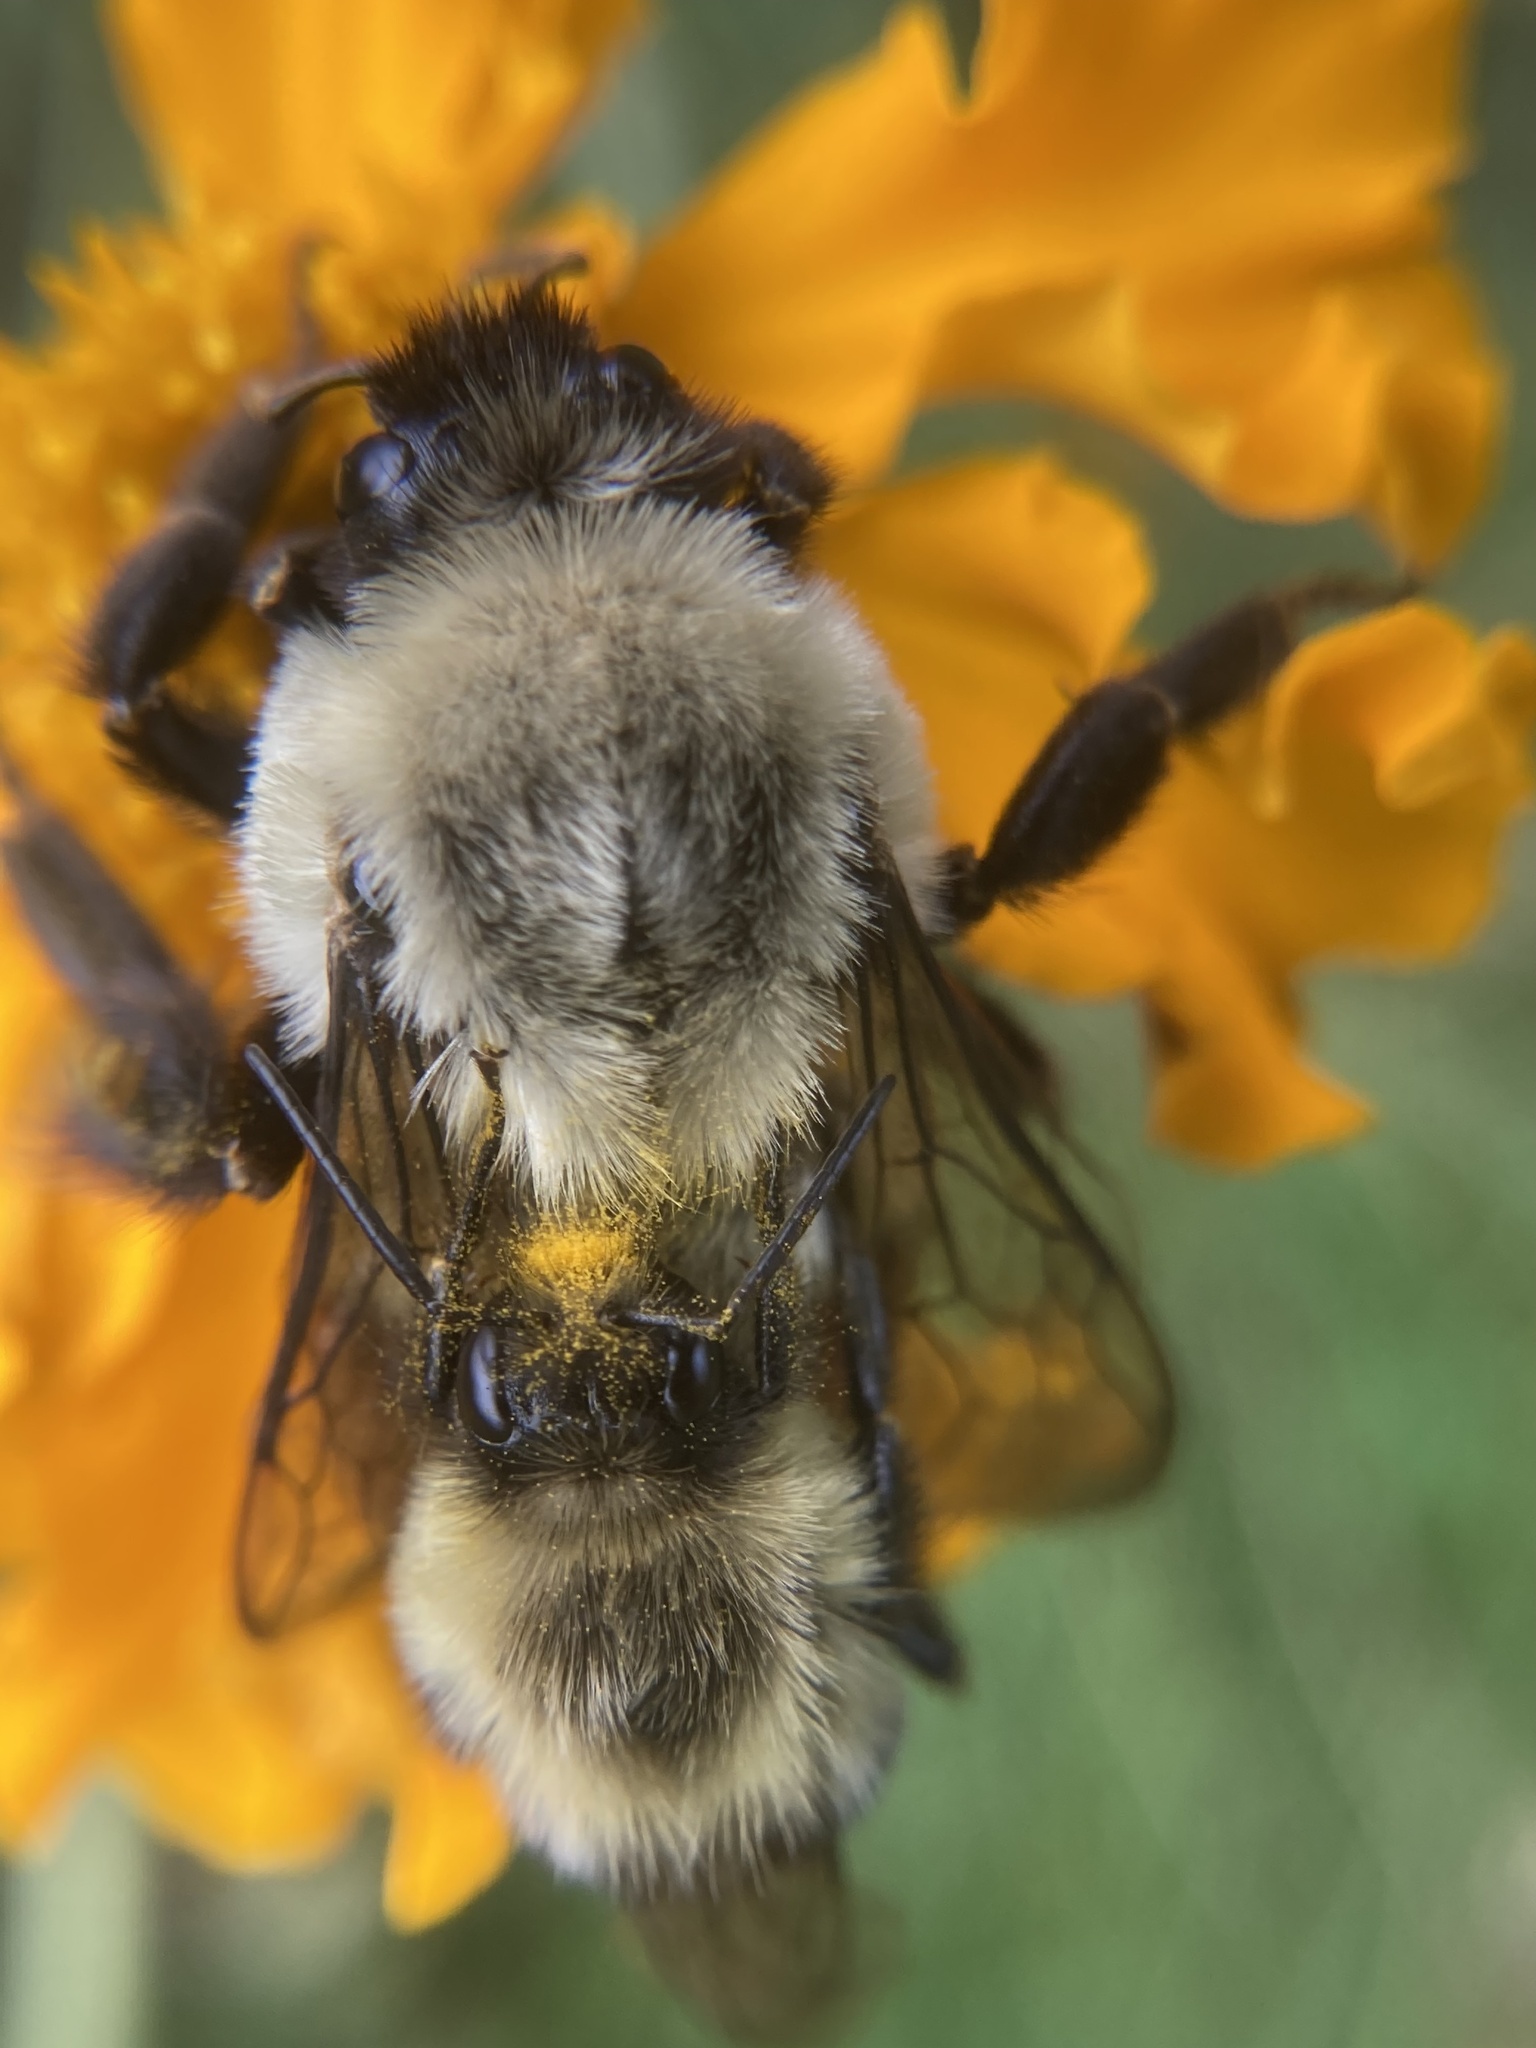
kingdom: Animalia
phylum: Arthropoda
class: Insecta
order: Hymenoptera
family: Apidae
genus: Bombus
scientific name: Bombus impatiens
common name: Common eastern bumble bee
